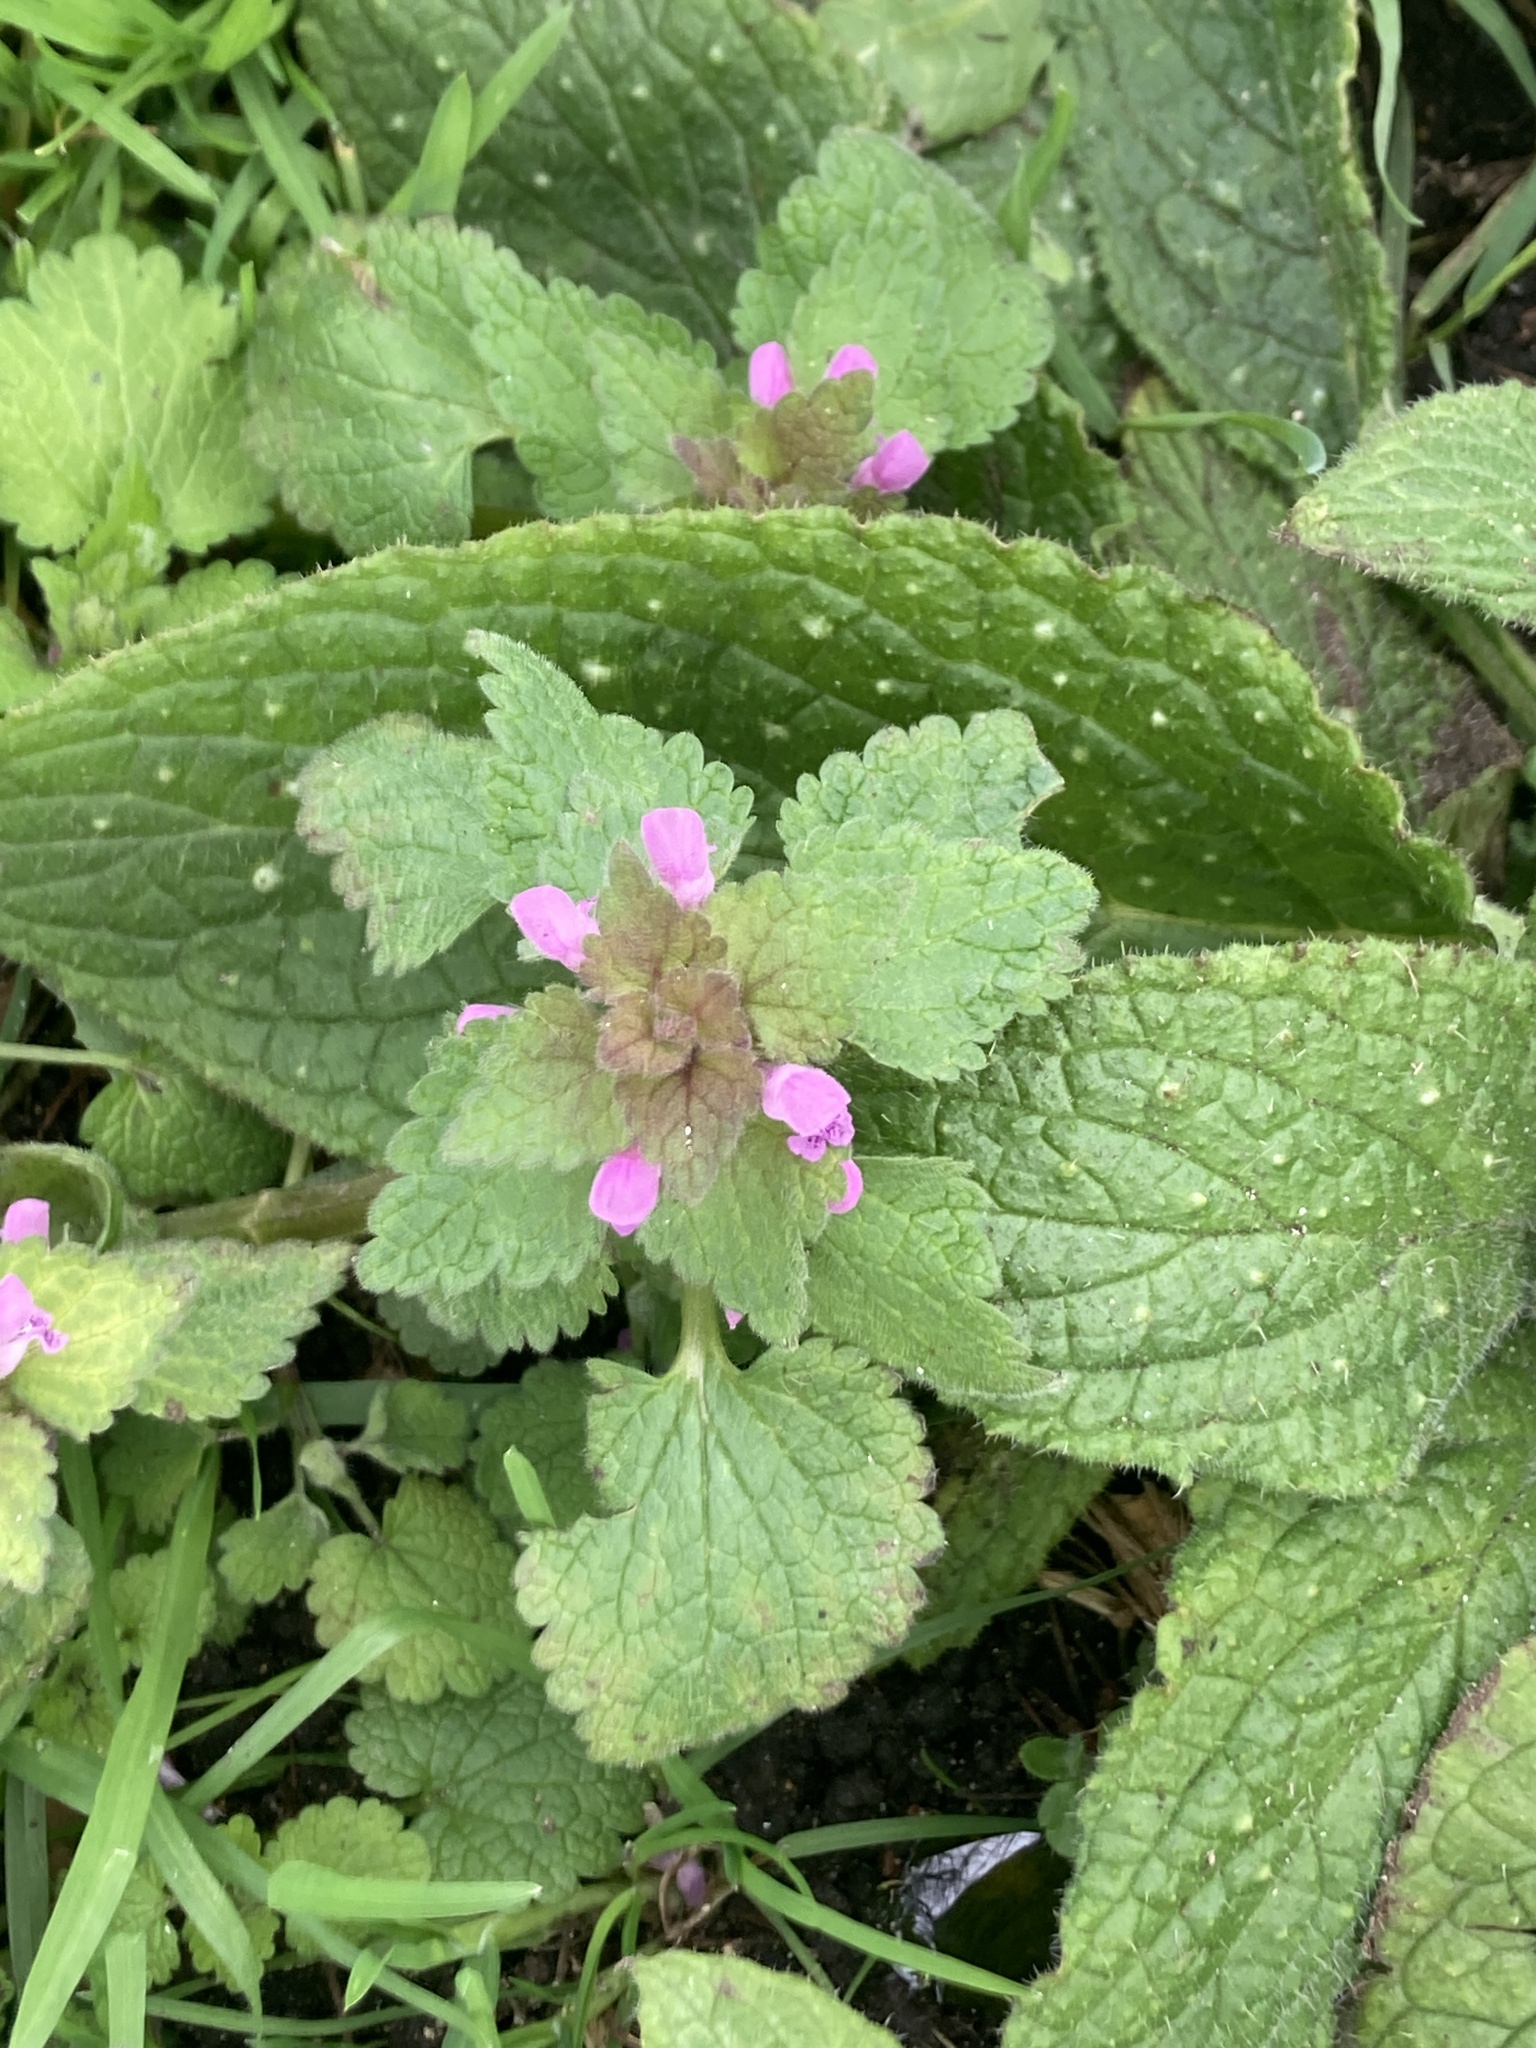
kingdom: Plantae
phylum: Tracheophyta
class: Magnoliopsida
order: Lamiales
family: Lamiaceae
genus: Lamium
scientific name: Lamium purpureum
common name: Red dead-nettle
